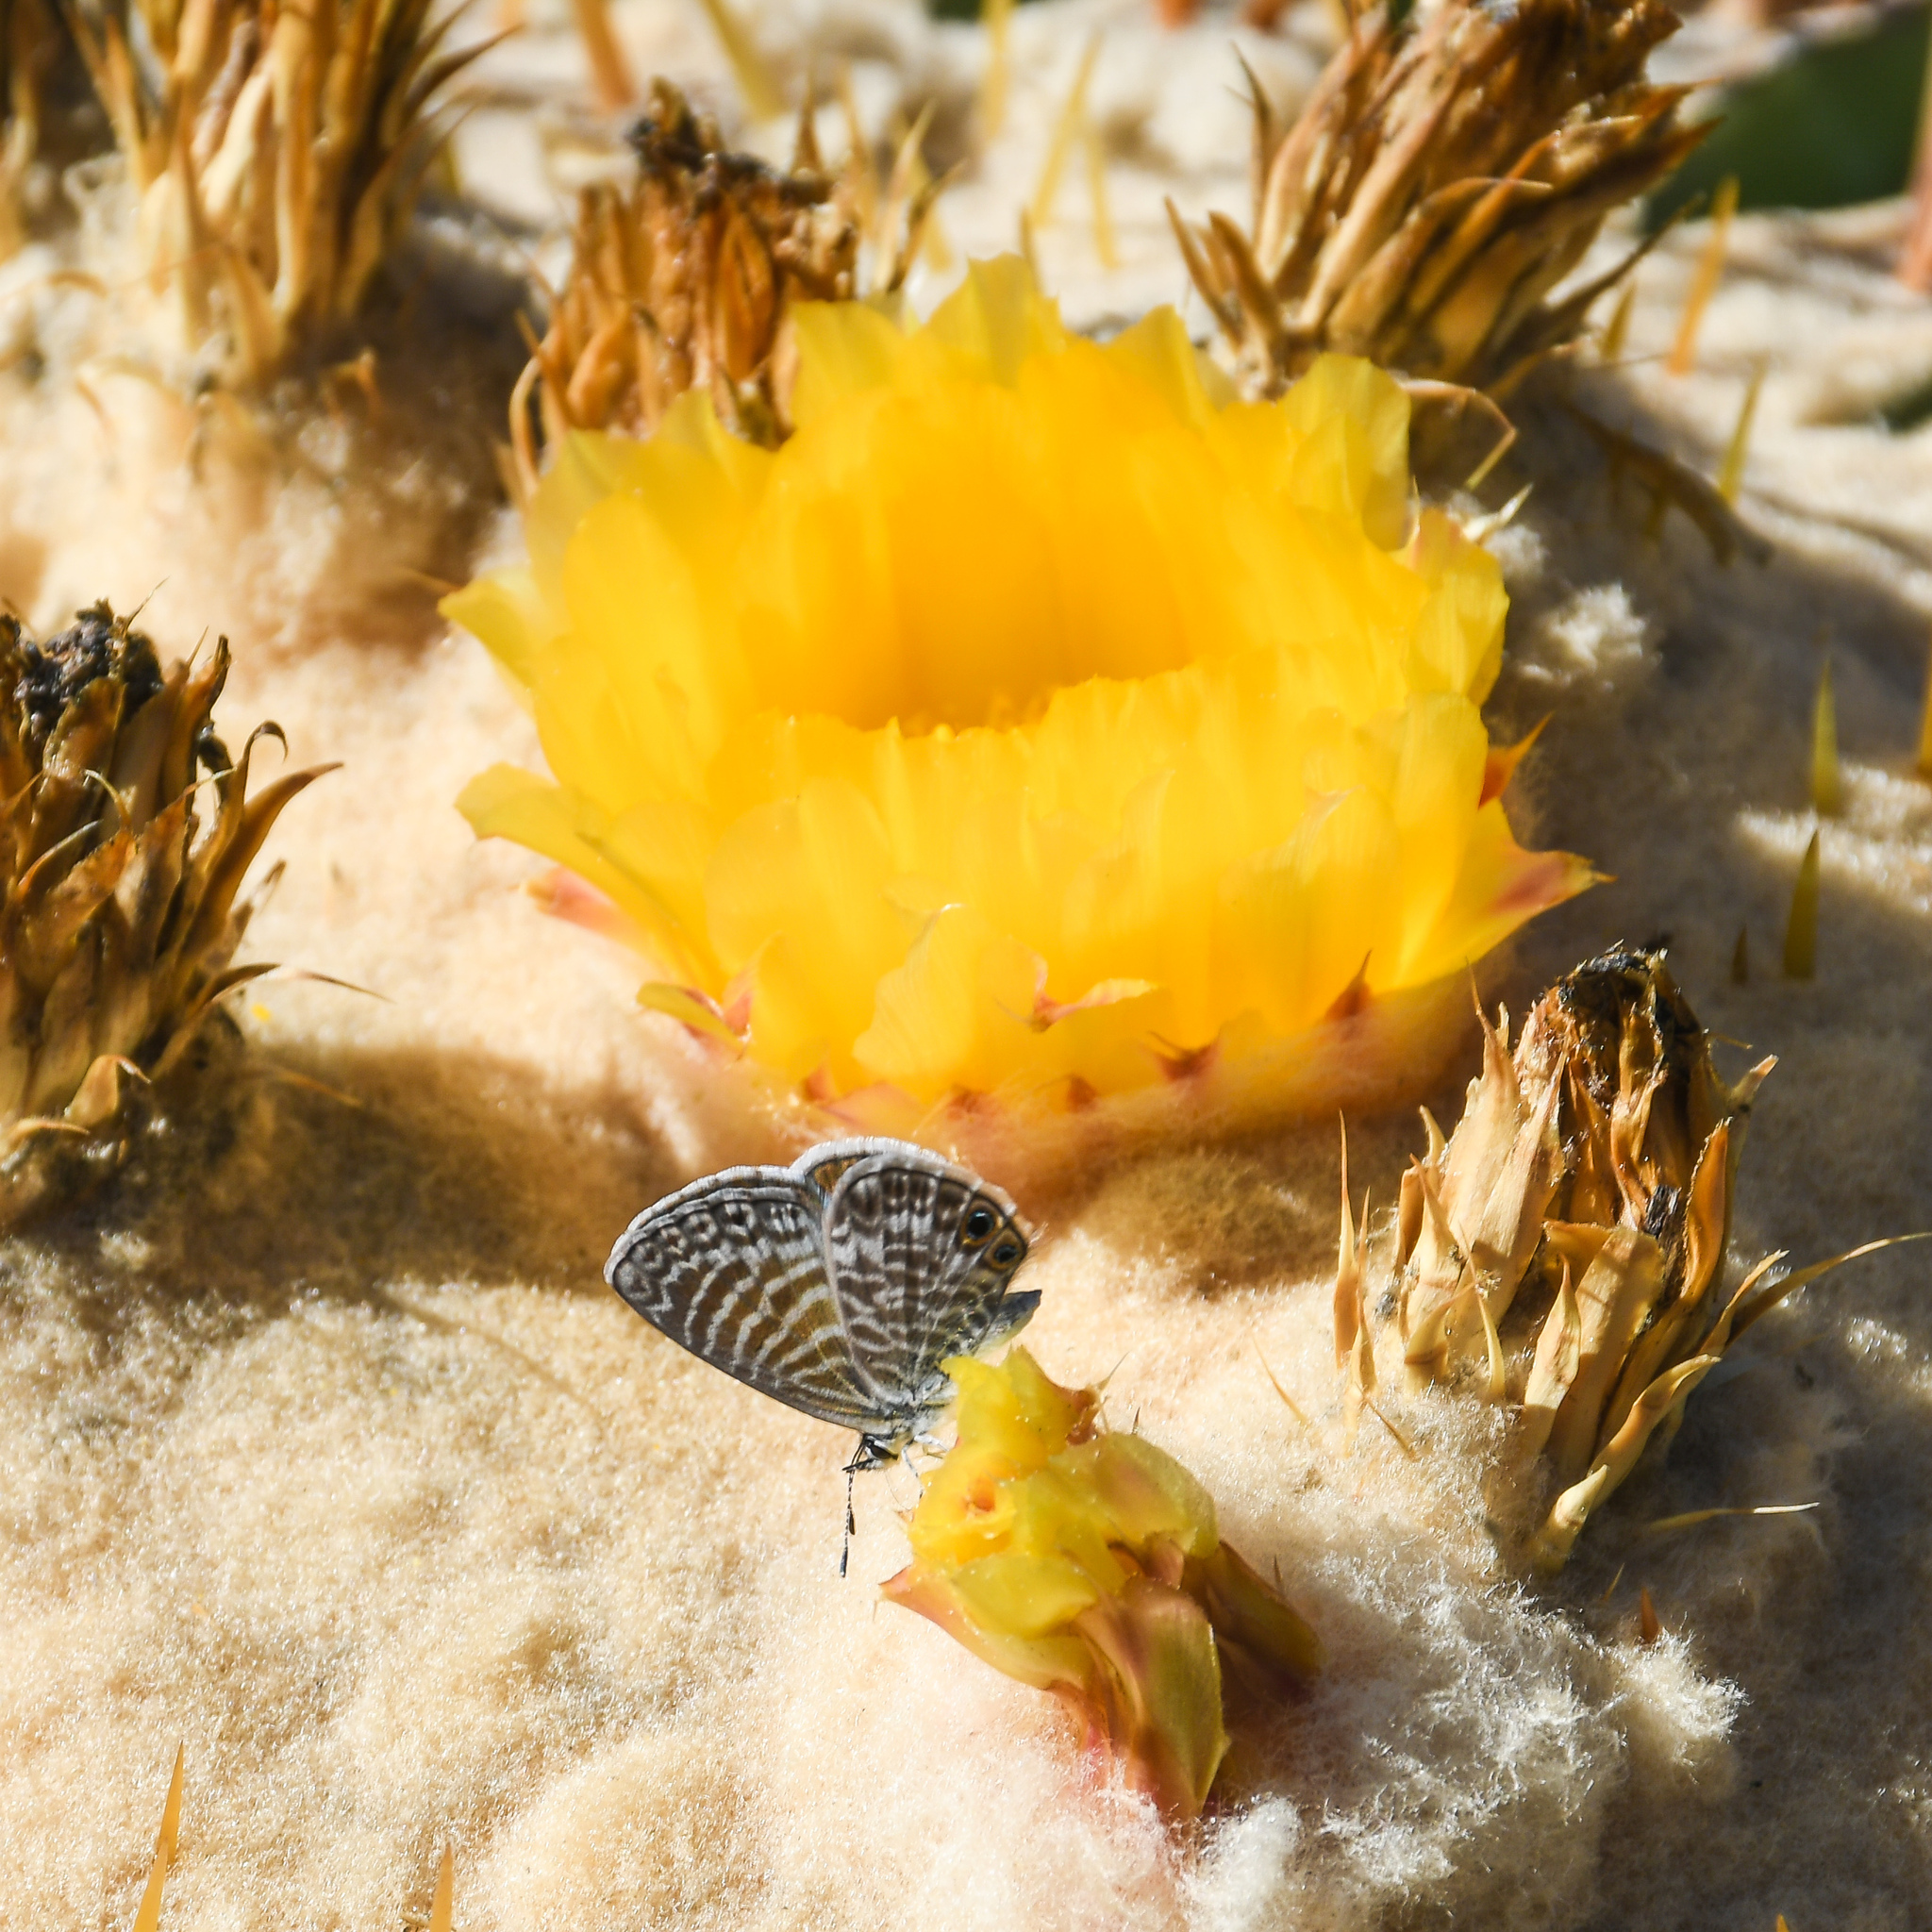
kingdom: Animalia
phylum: Arthropoda
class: Insecta
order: Lepidoptera
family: Lycaenidae
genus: Leptotes
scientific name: Leptotes marina
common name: Marine blue
